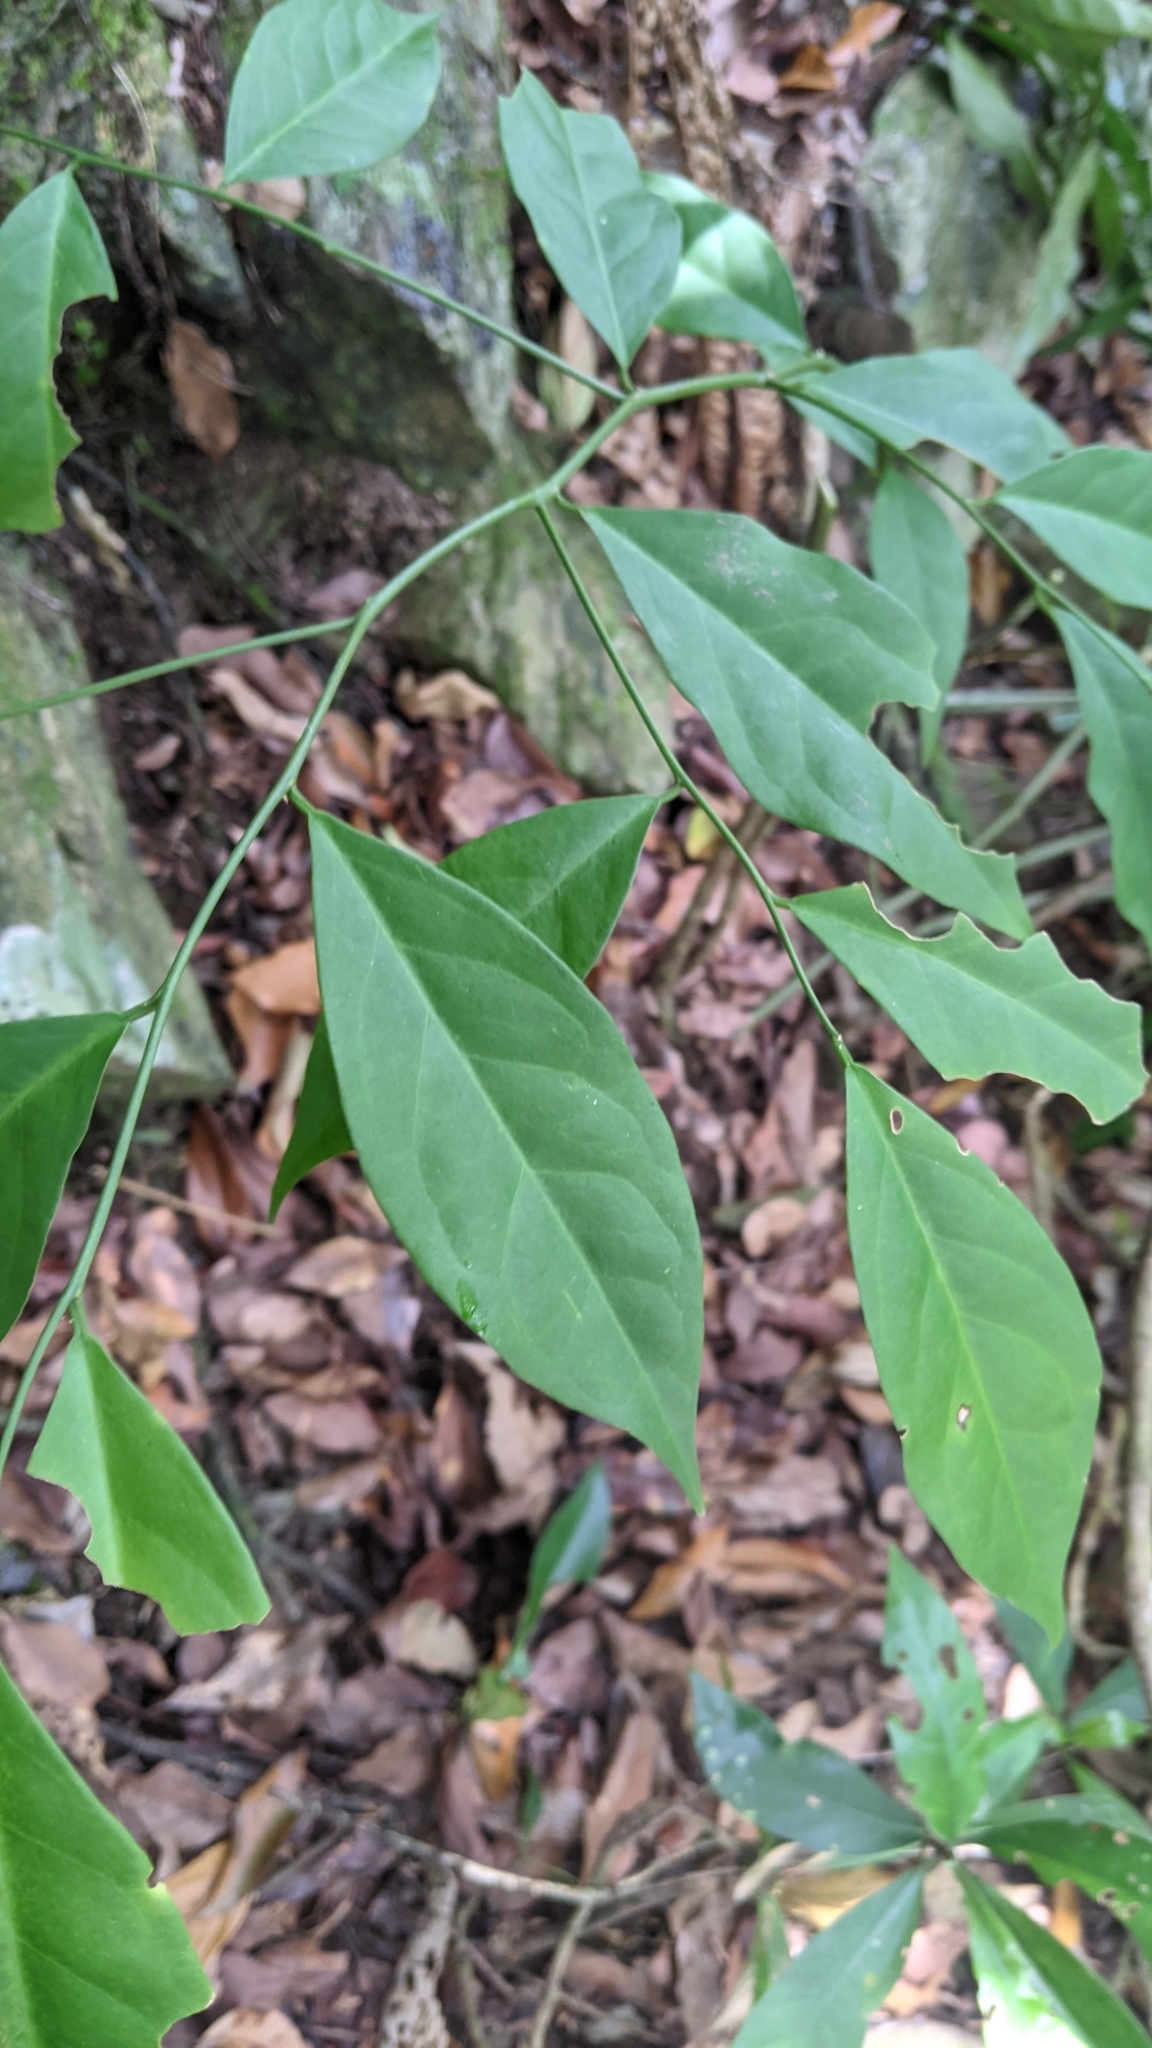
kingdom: Plantae
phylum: Tracheophyta
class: Magnoliopsida
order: Brassicales
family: Capparaceae
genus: Capparis
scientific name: Capparis sabiifolia
